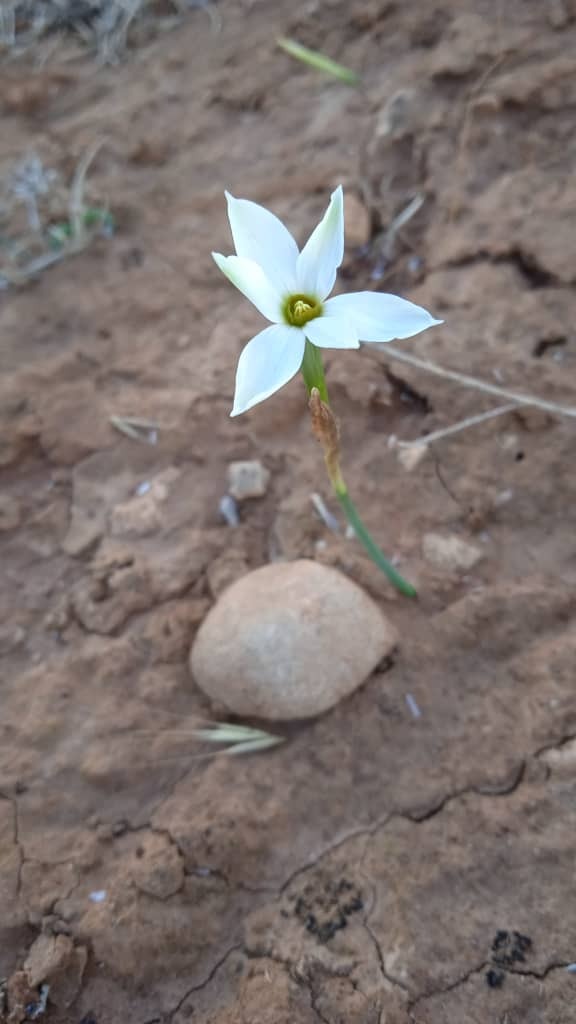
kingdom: Plantae
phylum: Tracheophyta
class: Liliopsida
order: Asparagales
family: Amaryllidaceae
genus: Narcissus
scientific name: Narcissus deficiens
